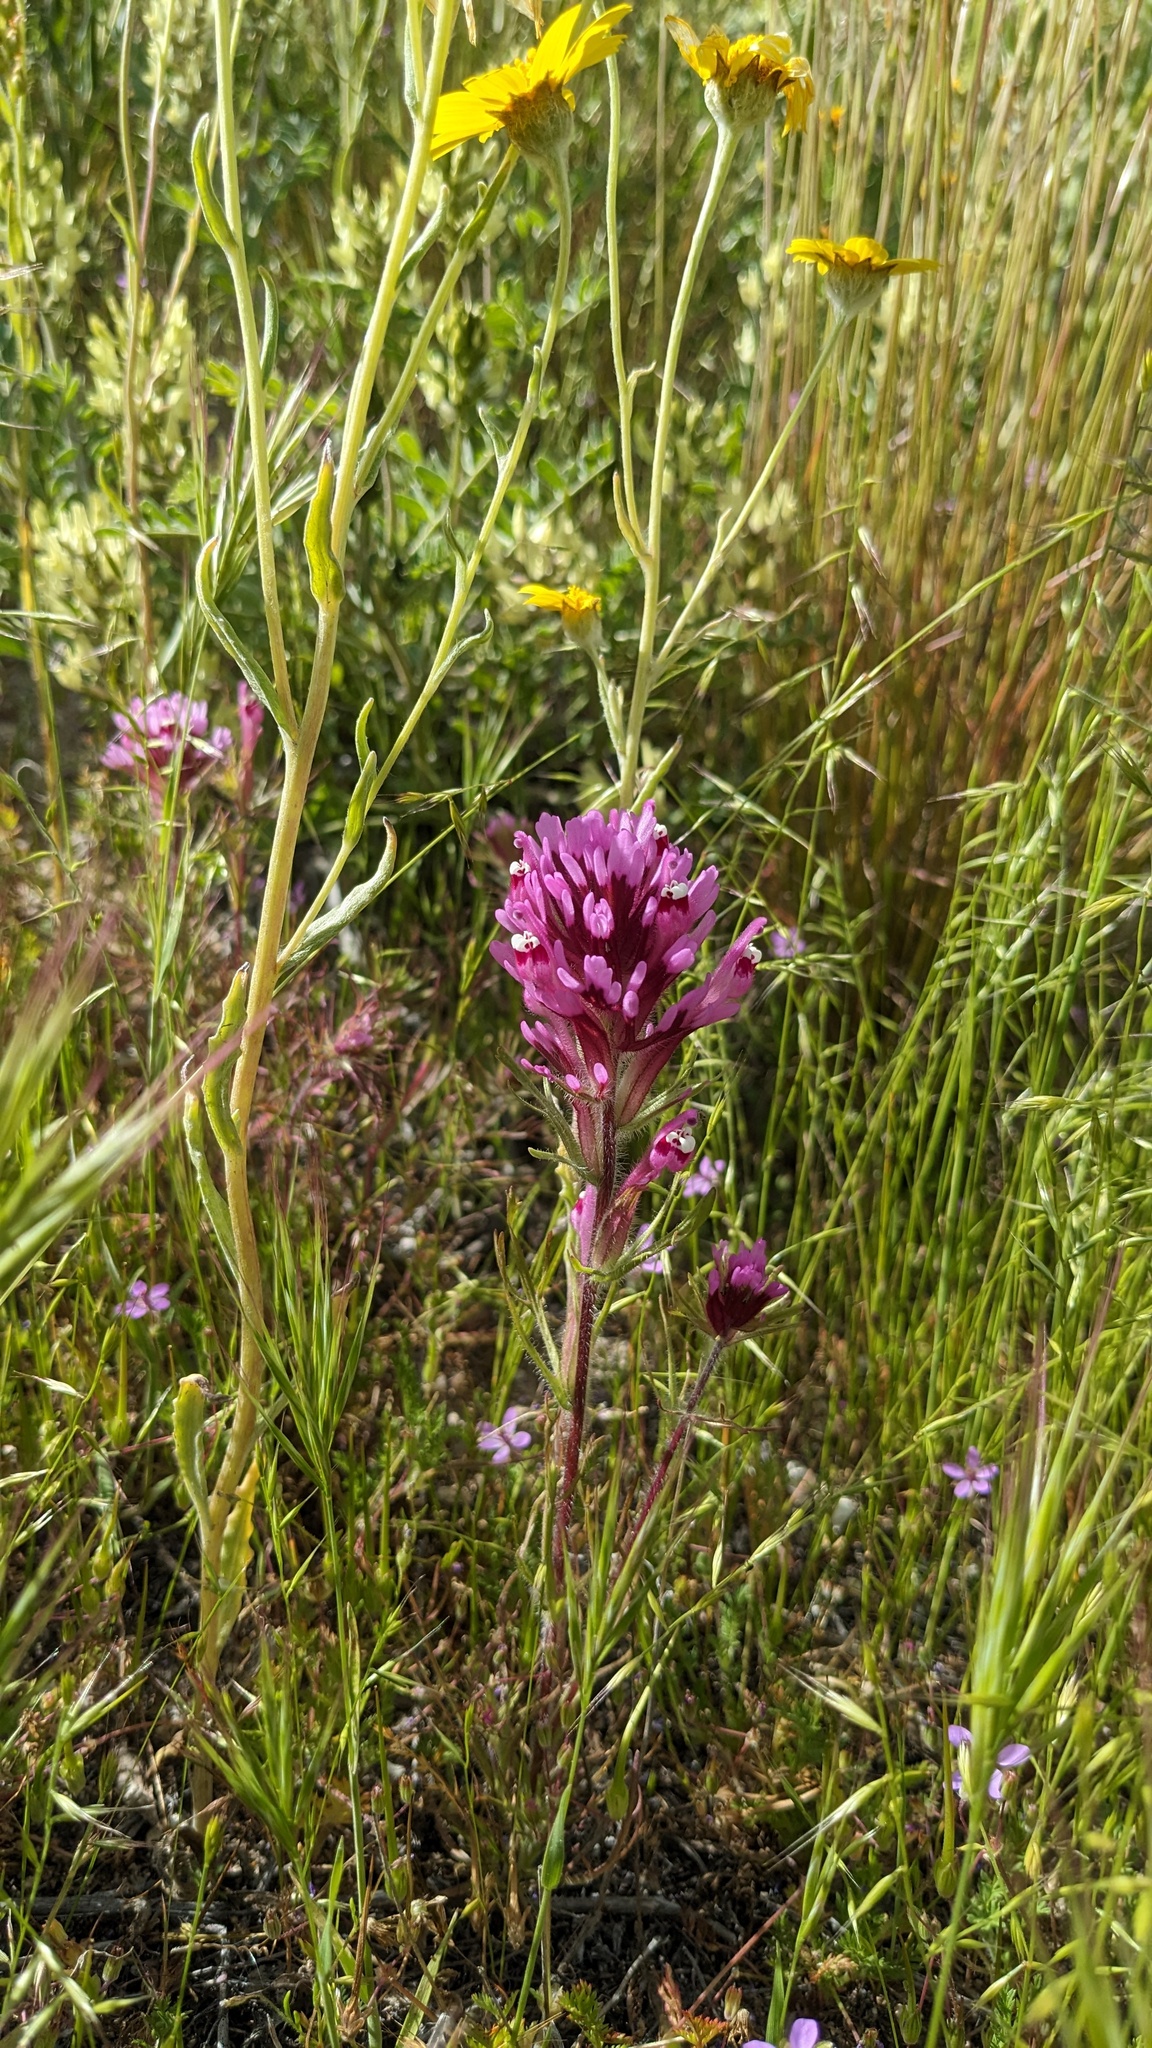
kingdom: Plantae
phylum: Tracheophyta
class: Magnoliopsida
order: Lamiales
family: Orobanchaceae
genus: Castilleja
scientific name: Castilleja exserta
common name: Purple owl-clover
